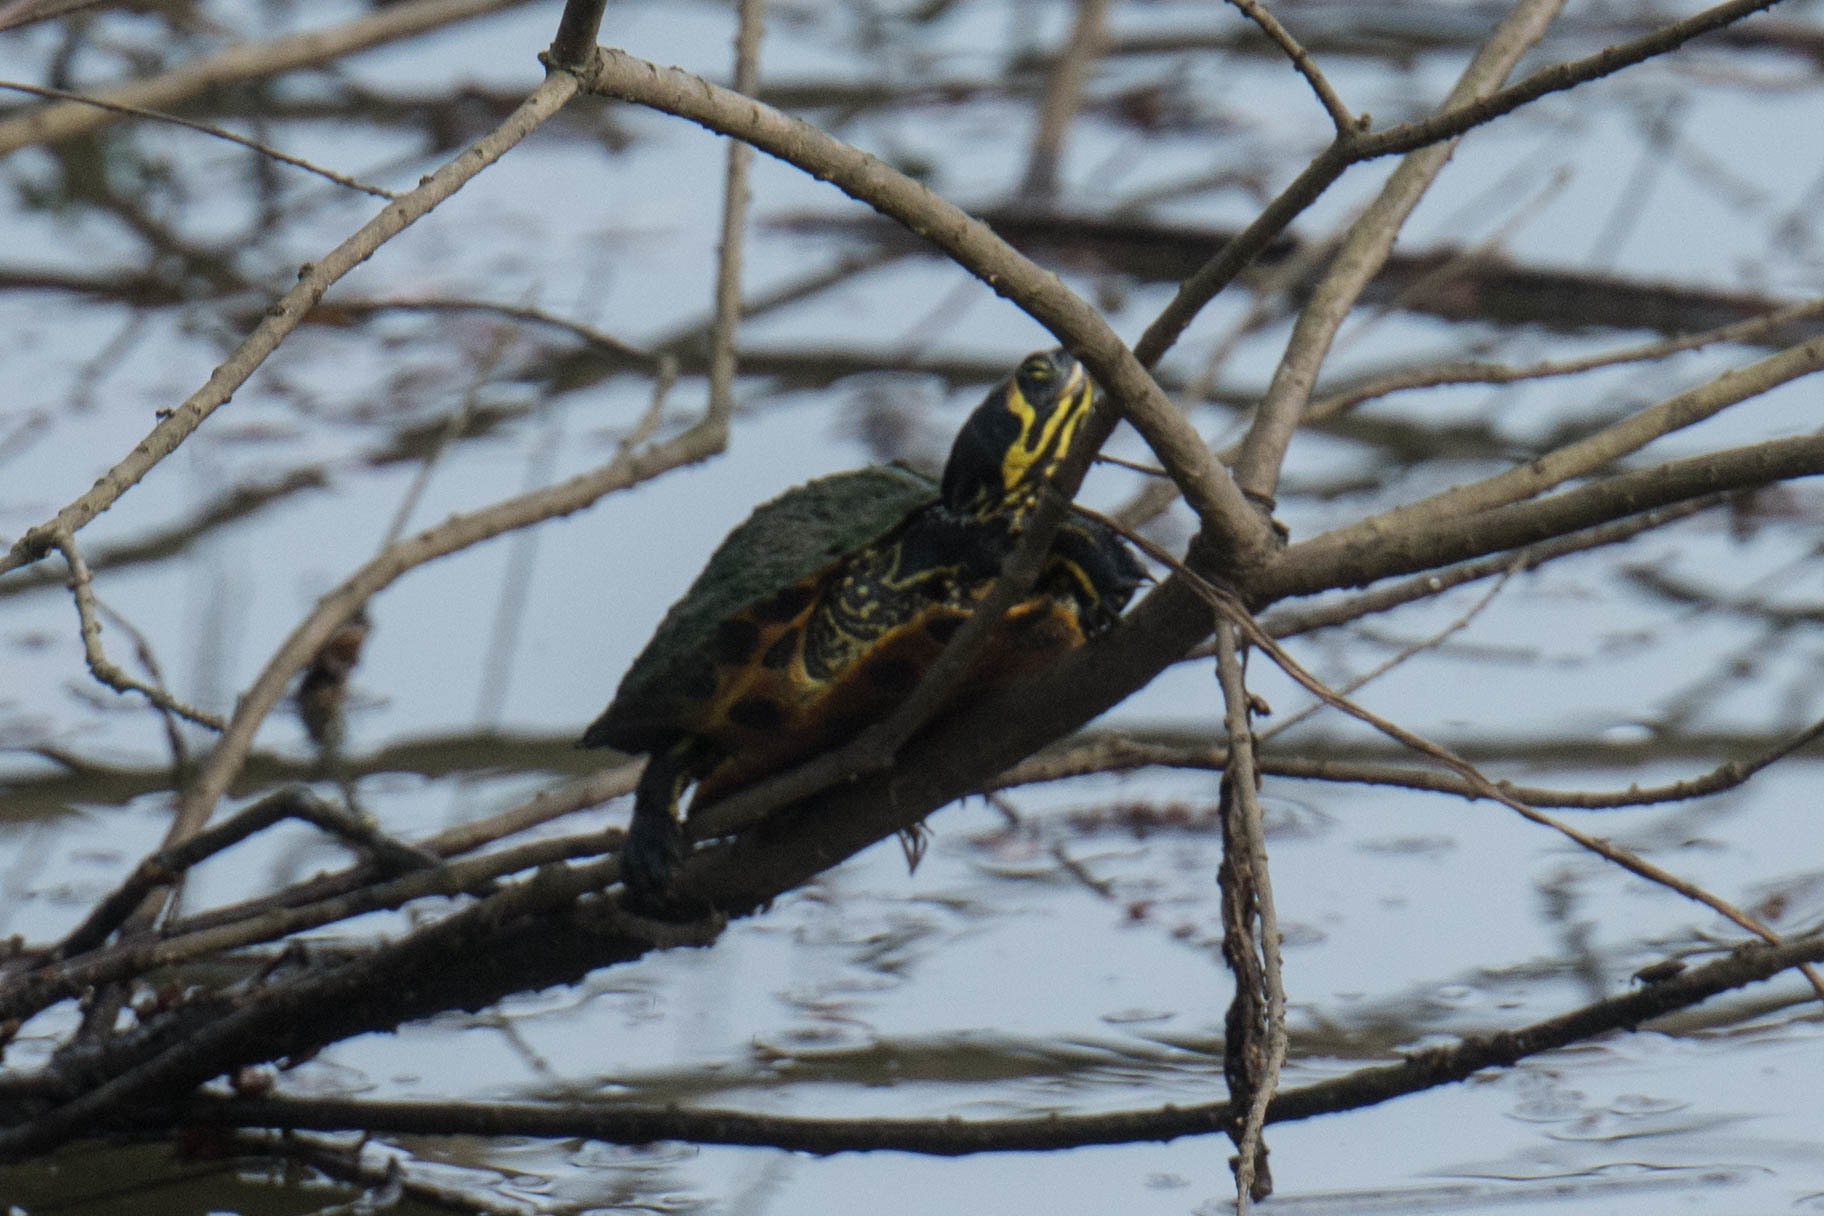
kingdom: Animalia
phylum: Chordata
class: Testudines
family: Emydidae
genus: Trachemys
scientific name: Trachemys scripta
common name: Slider
